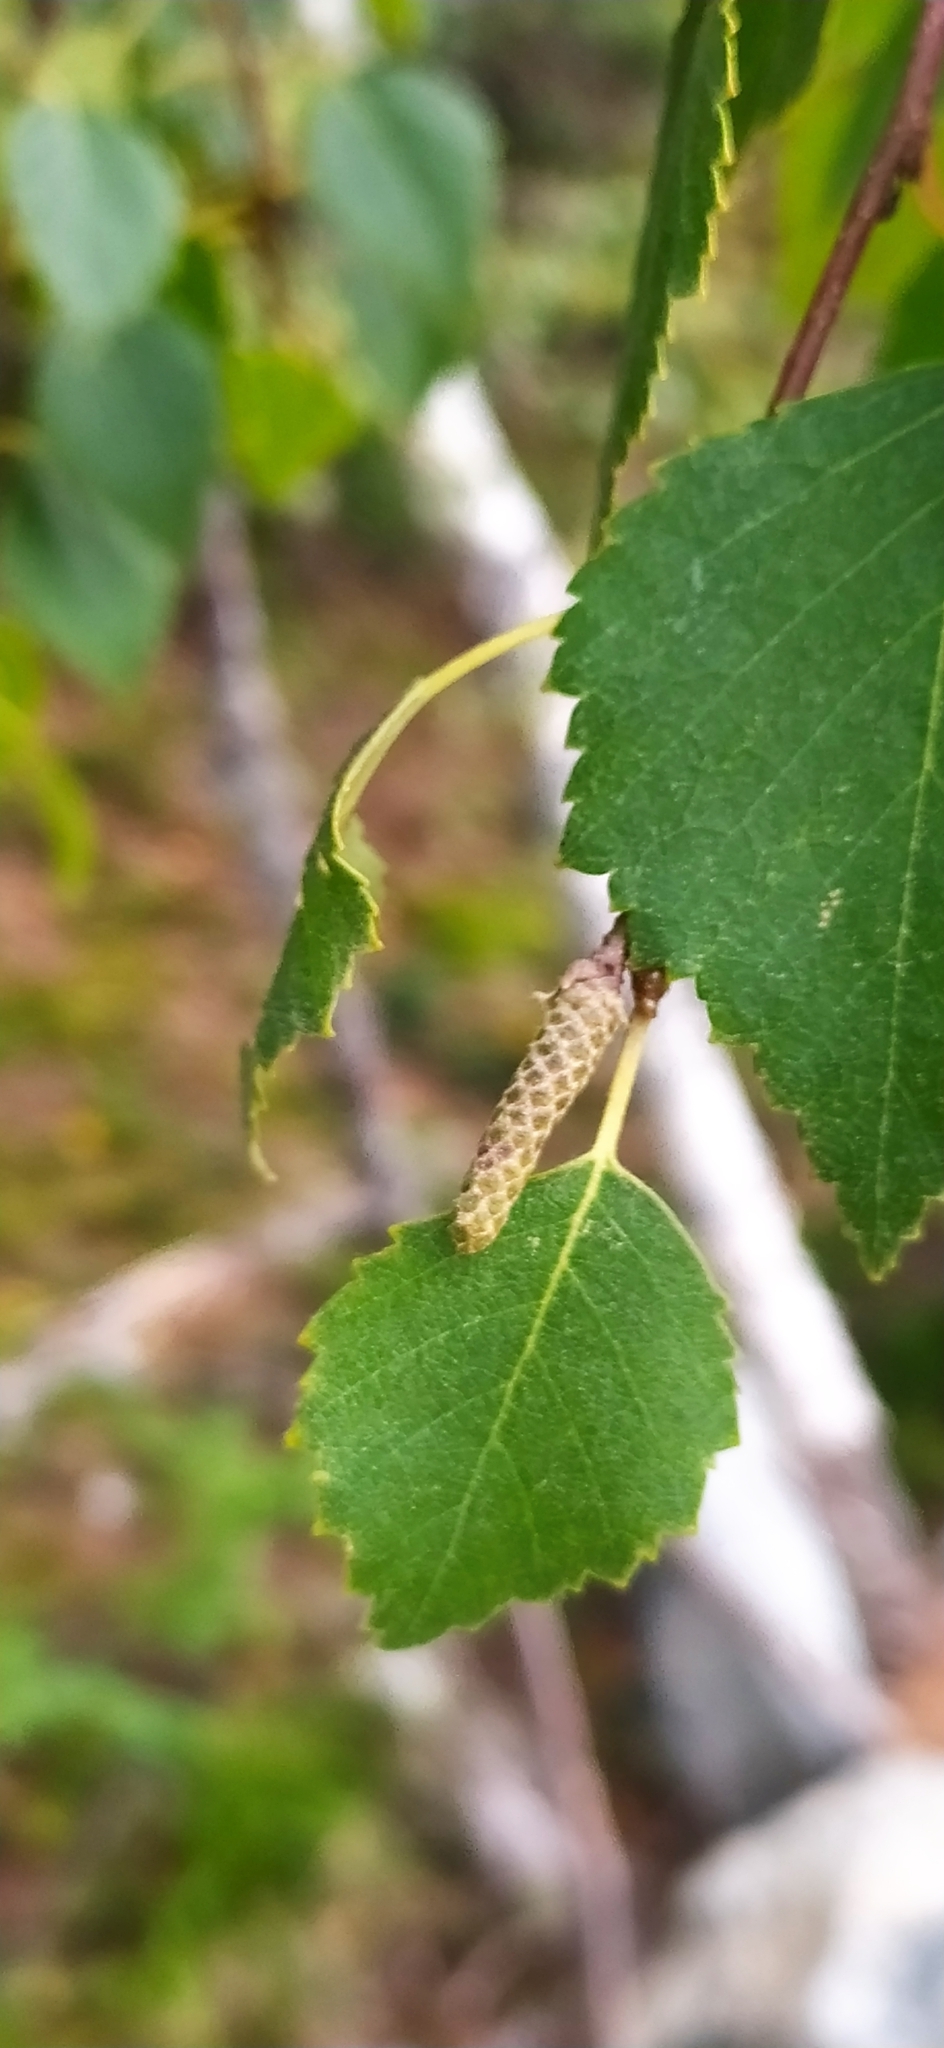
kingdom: Plantae
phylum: Tracheophyta
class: Magnoliopsida
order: Fagales
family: Betulaceae
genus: Betula
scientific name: Betula pubescens
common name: Downy birch
